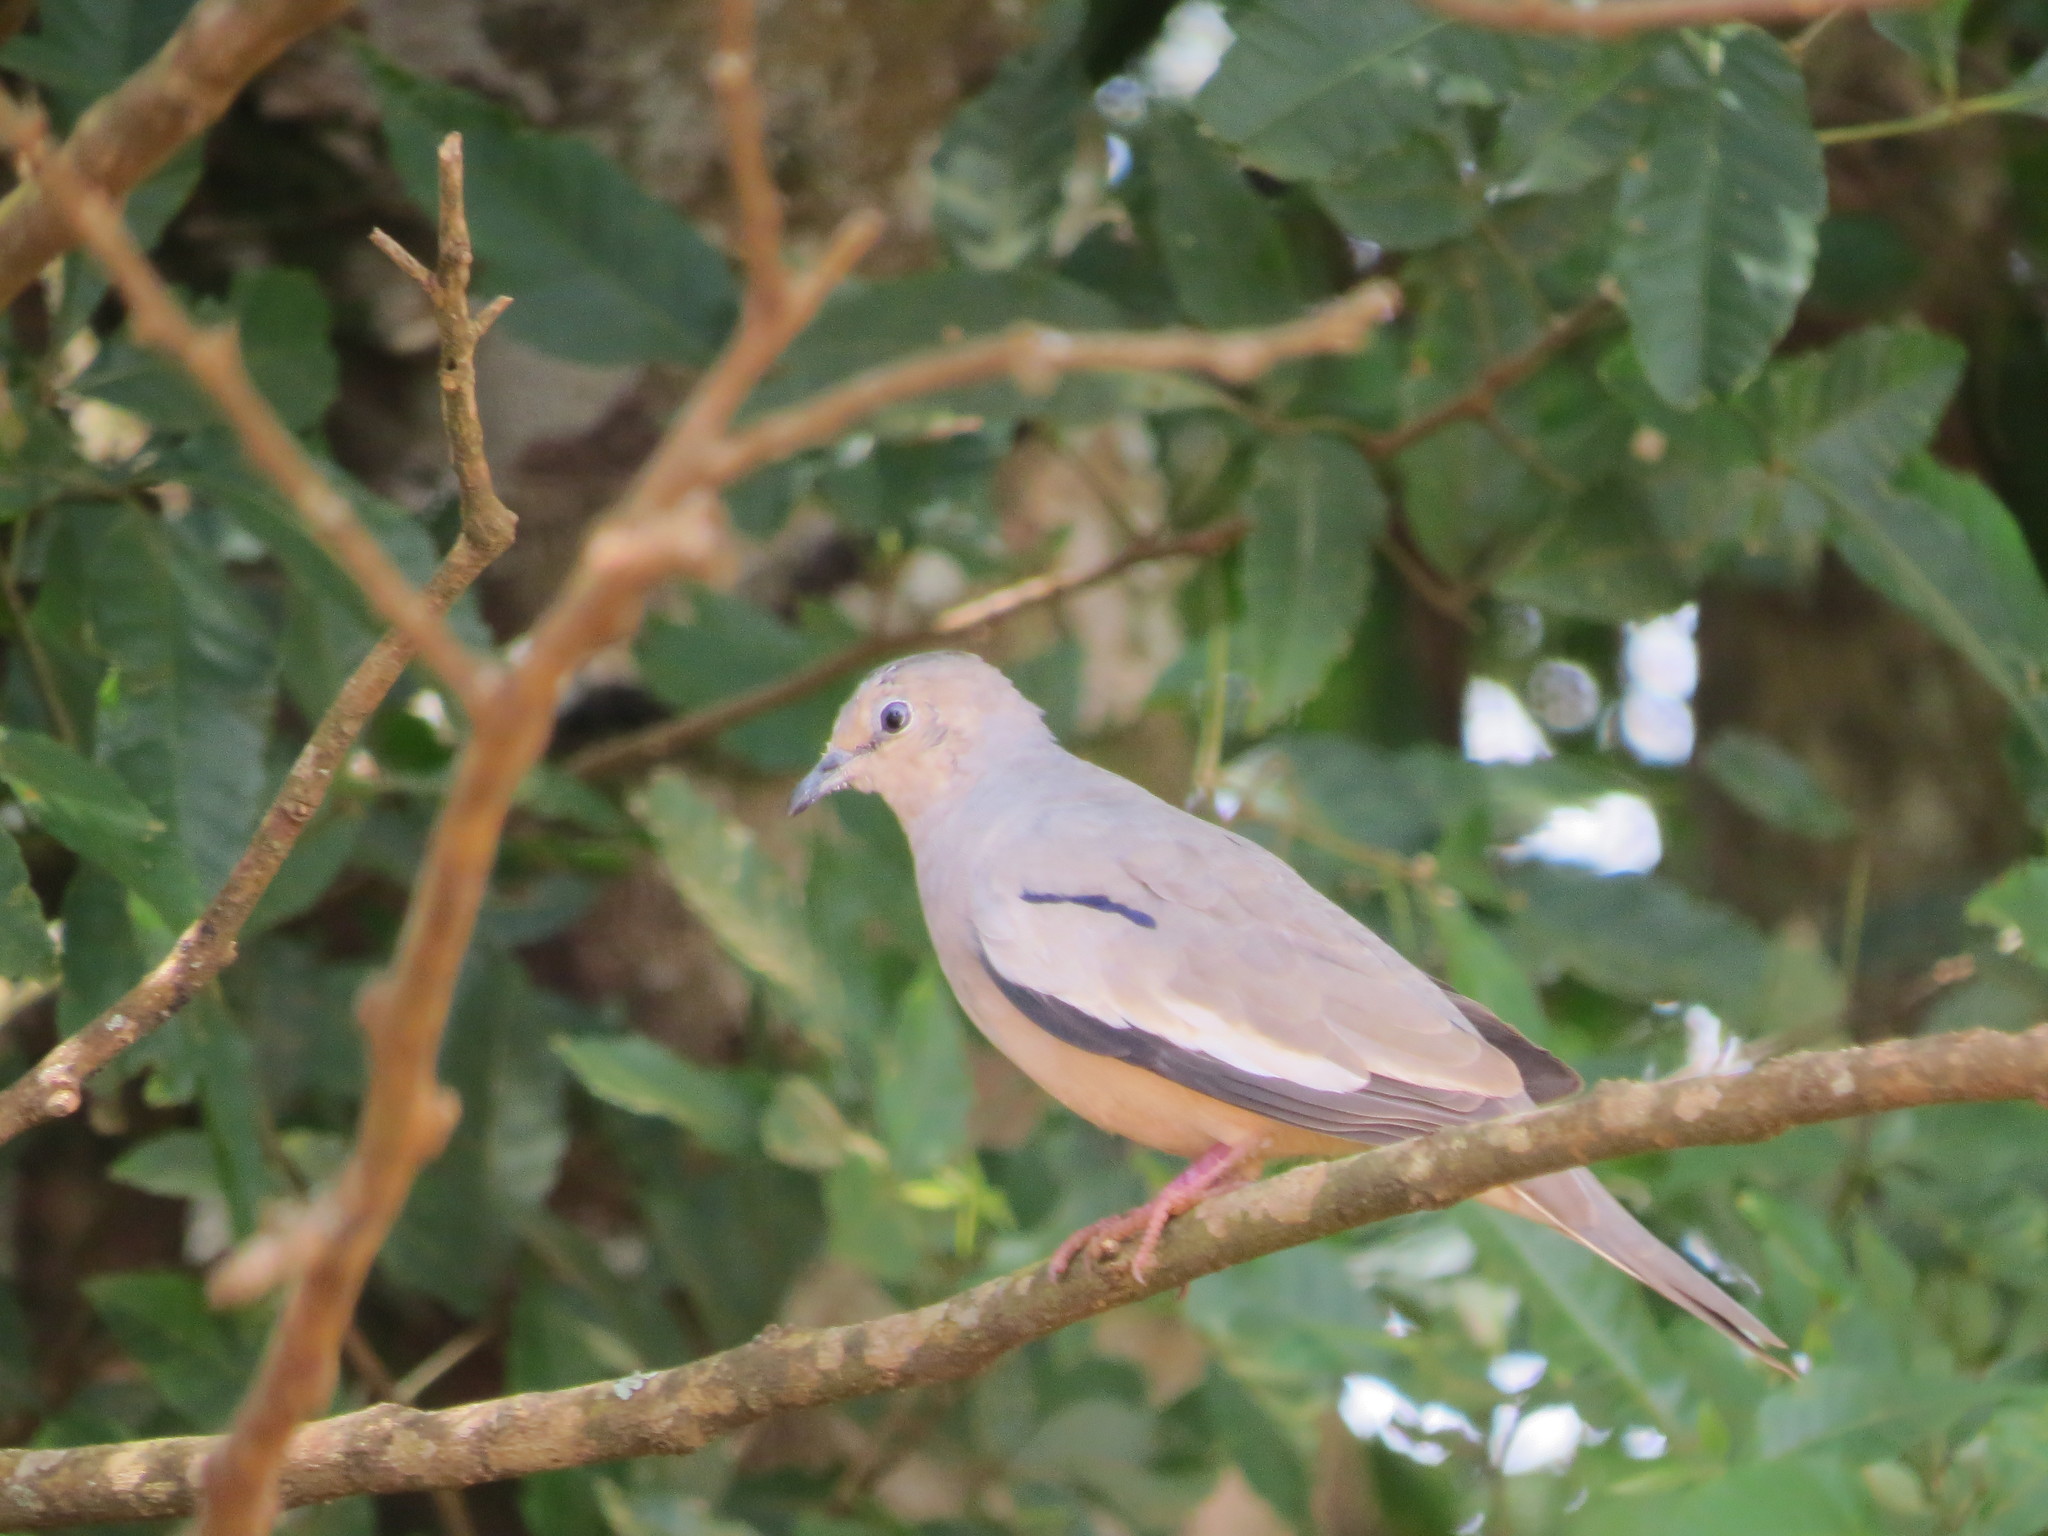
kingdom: Animalia
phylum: Chordata
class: Aves
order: Columbiformes
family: Columbidae
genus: Columbina
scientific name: Columbina picui
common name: Picui ground dove
